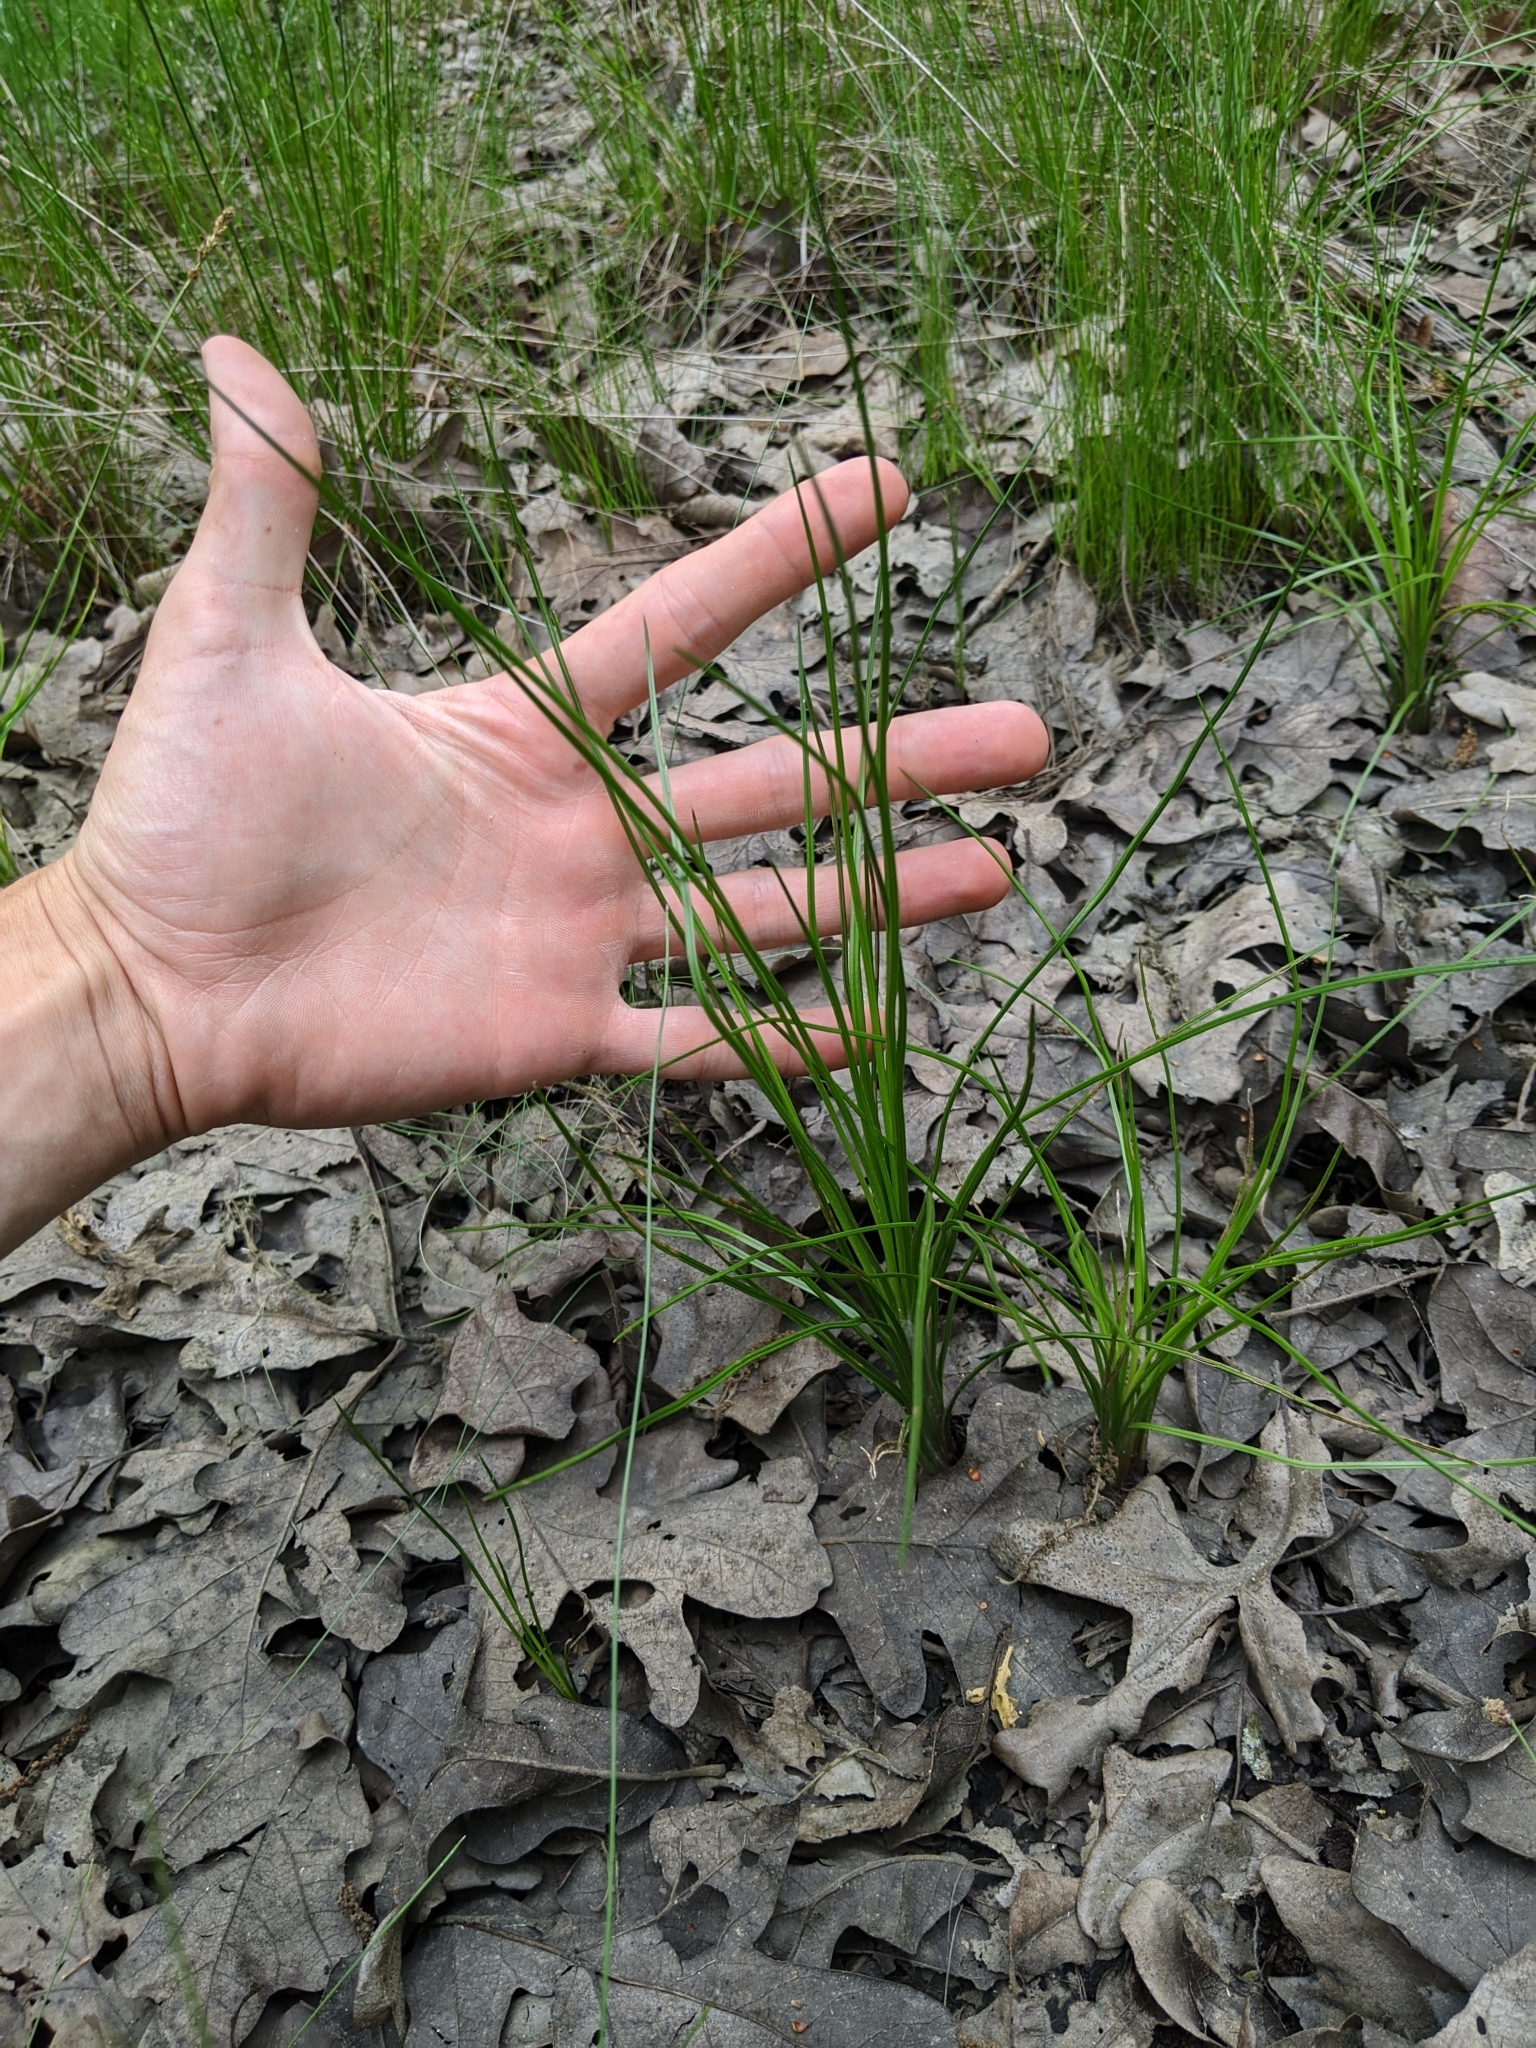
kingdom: Plantae
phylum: Tracheophyta
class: Lycopodiopsida
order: Isoetales
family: Isoetaceae
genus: Isoetes
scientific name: Isoetes melanopoda
